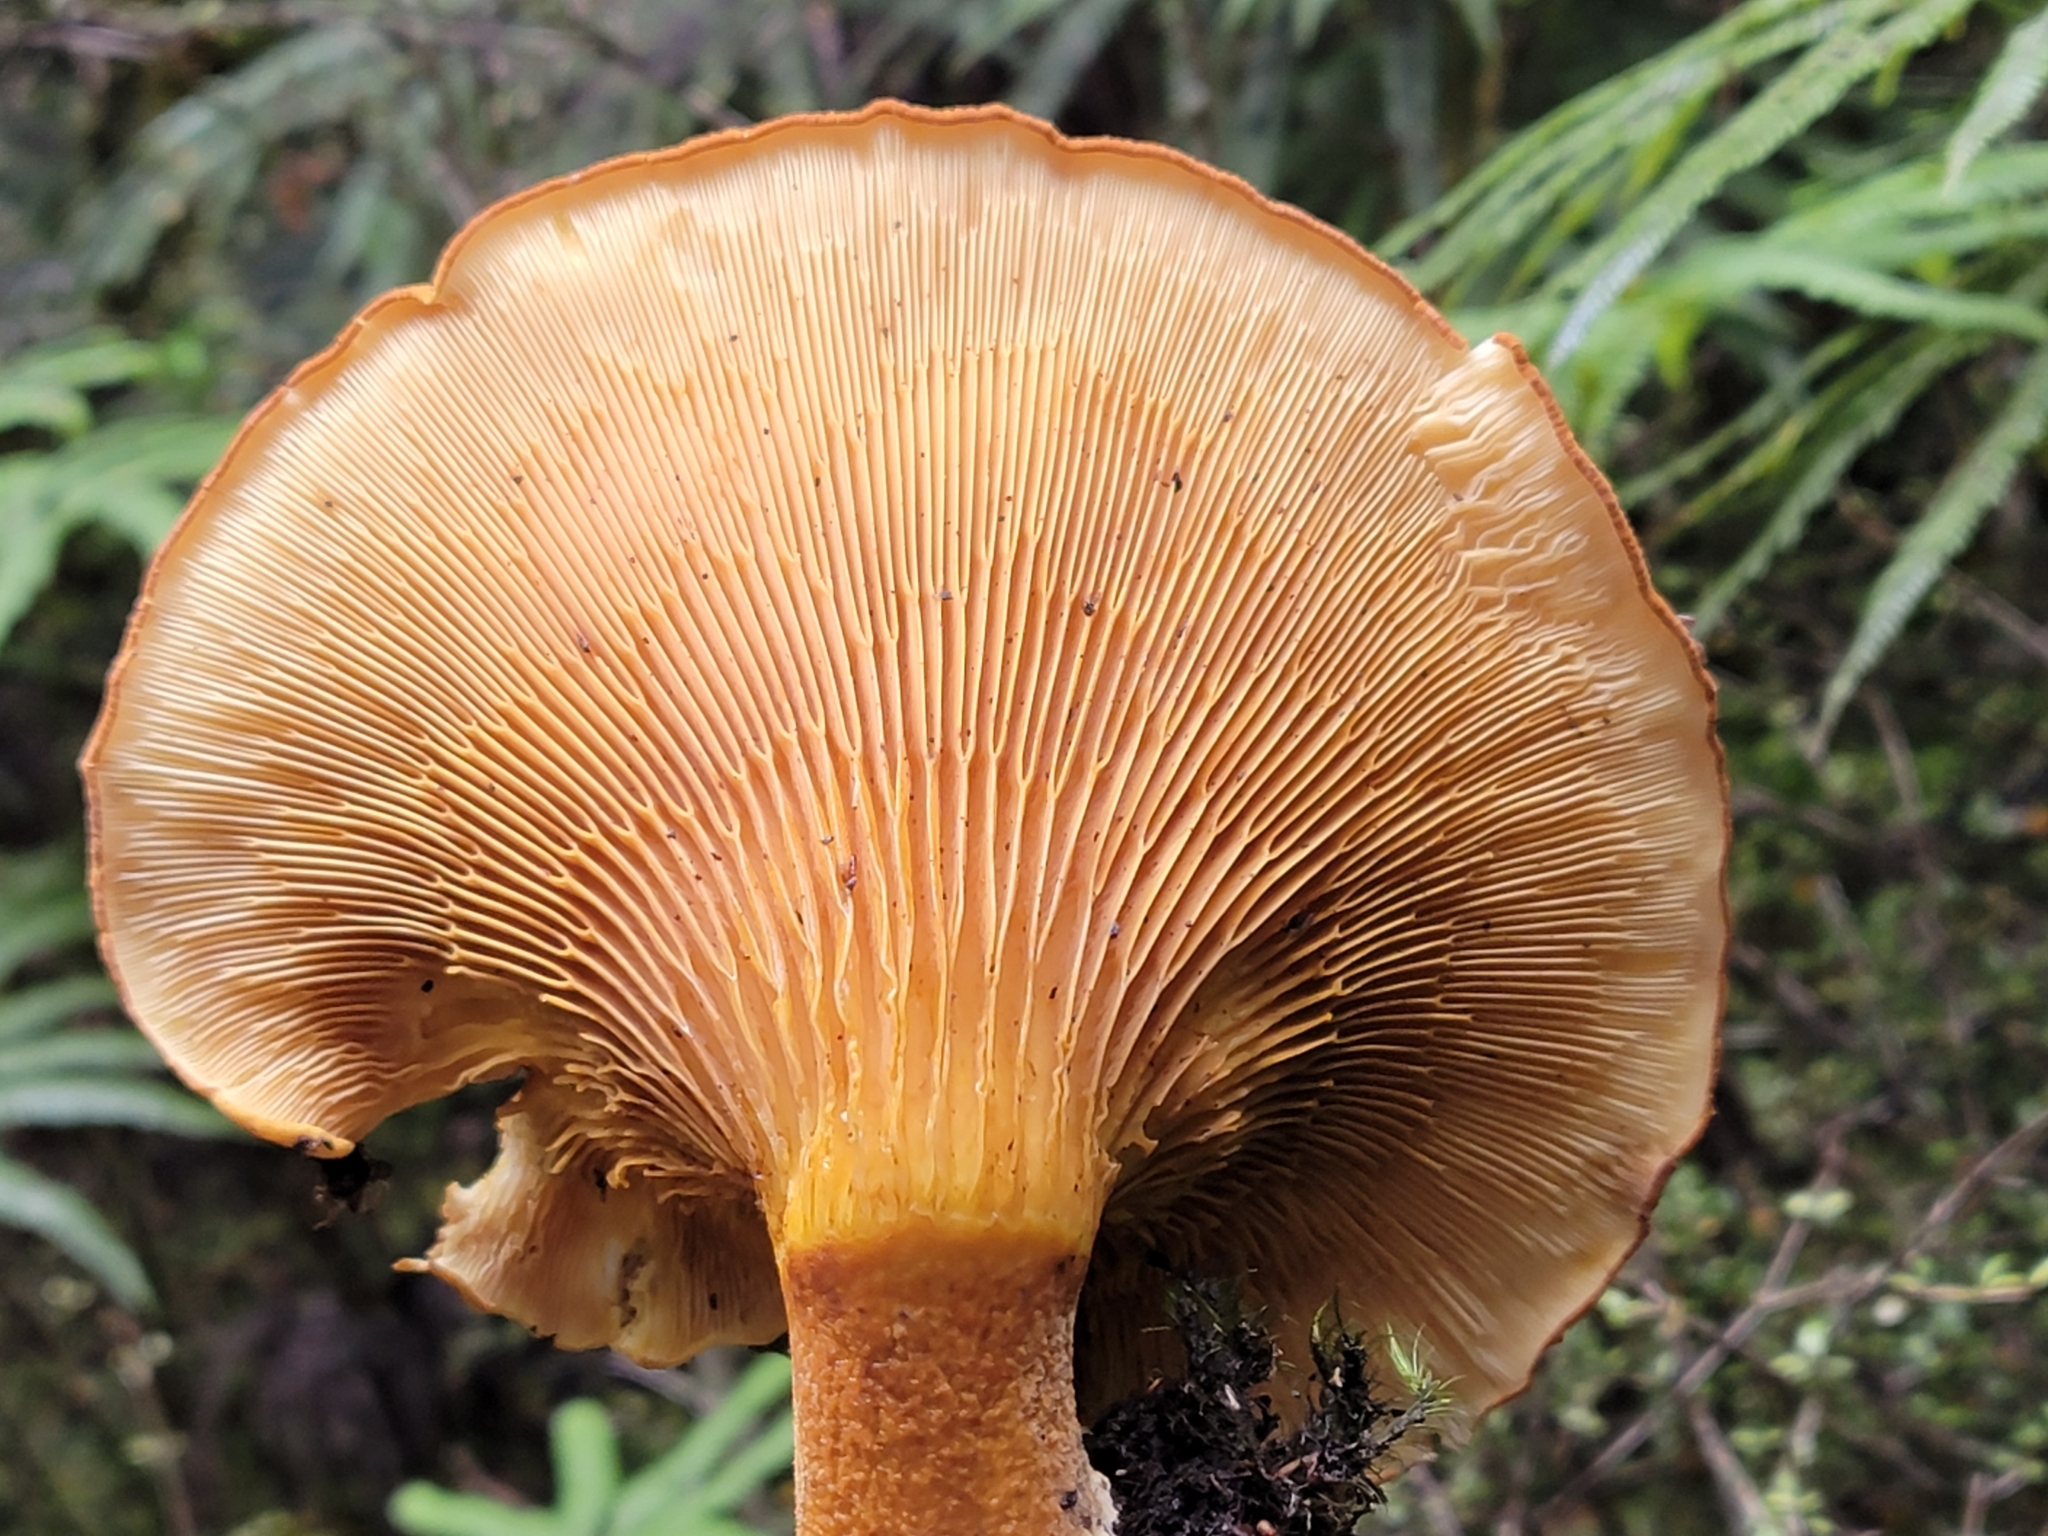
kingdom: Fungi
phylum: Basidiomycota
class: Agaricomycetes
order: Boletales
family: Serpulaceae
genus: Austropaxillus
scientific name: Austropaxillus nothofagi
